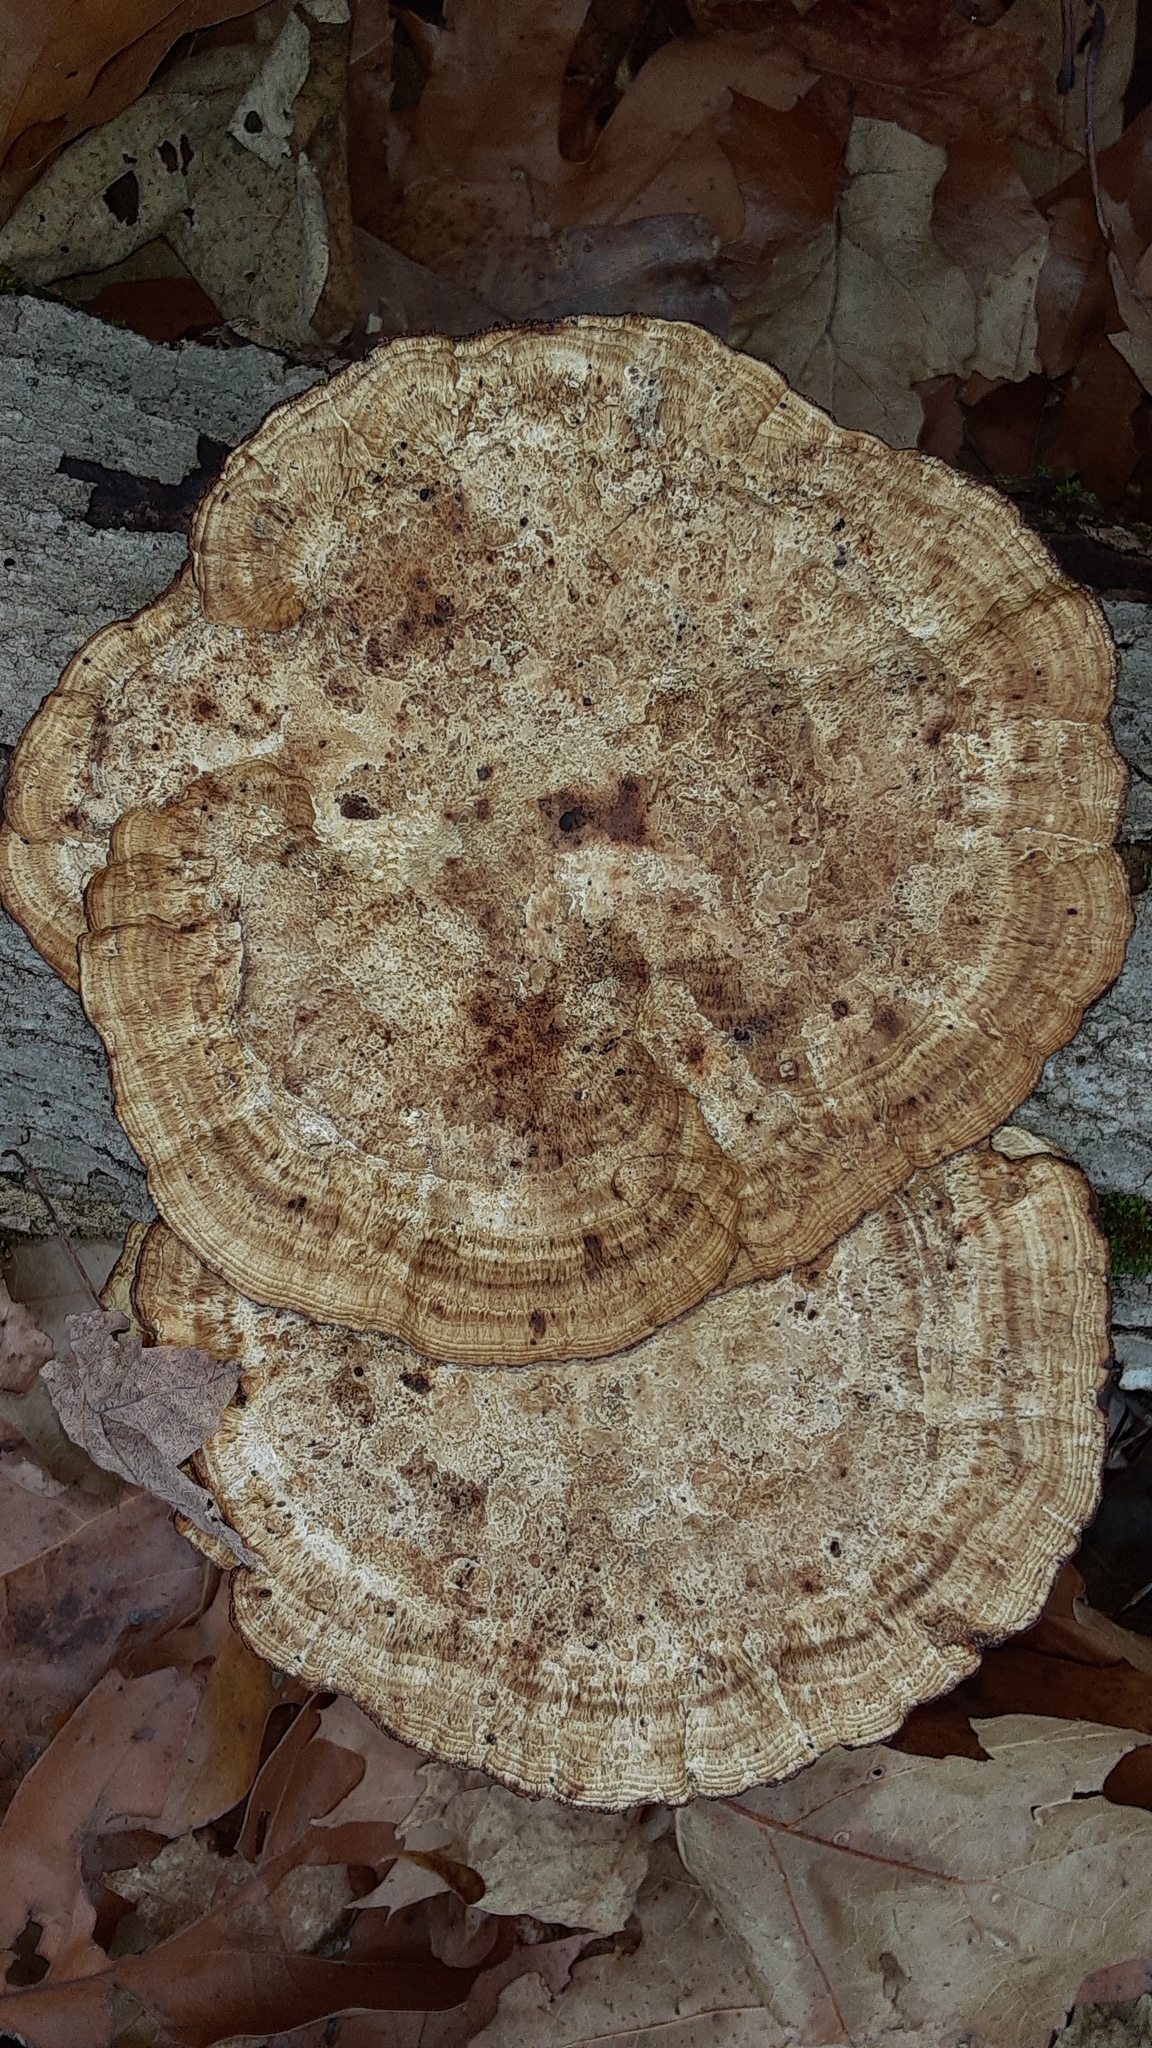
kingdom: Fungi
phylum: Basidiomycota
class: Agaricomycetes
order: Polyporales
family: Polyporaceae
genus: Daedaleopsis
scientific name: Daedaleopsis confragosa
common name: Blushing bracket
